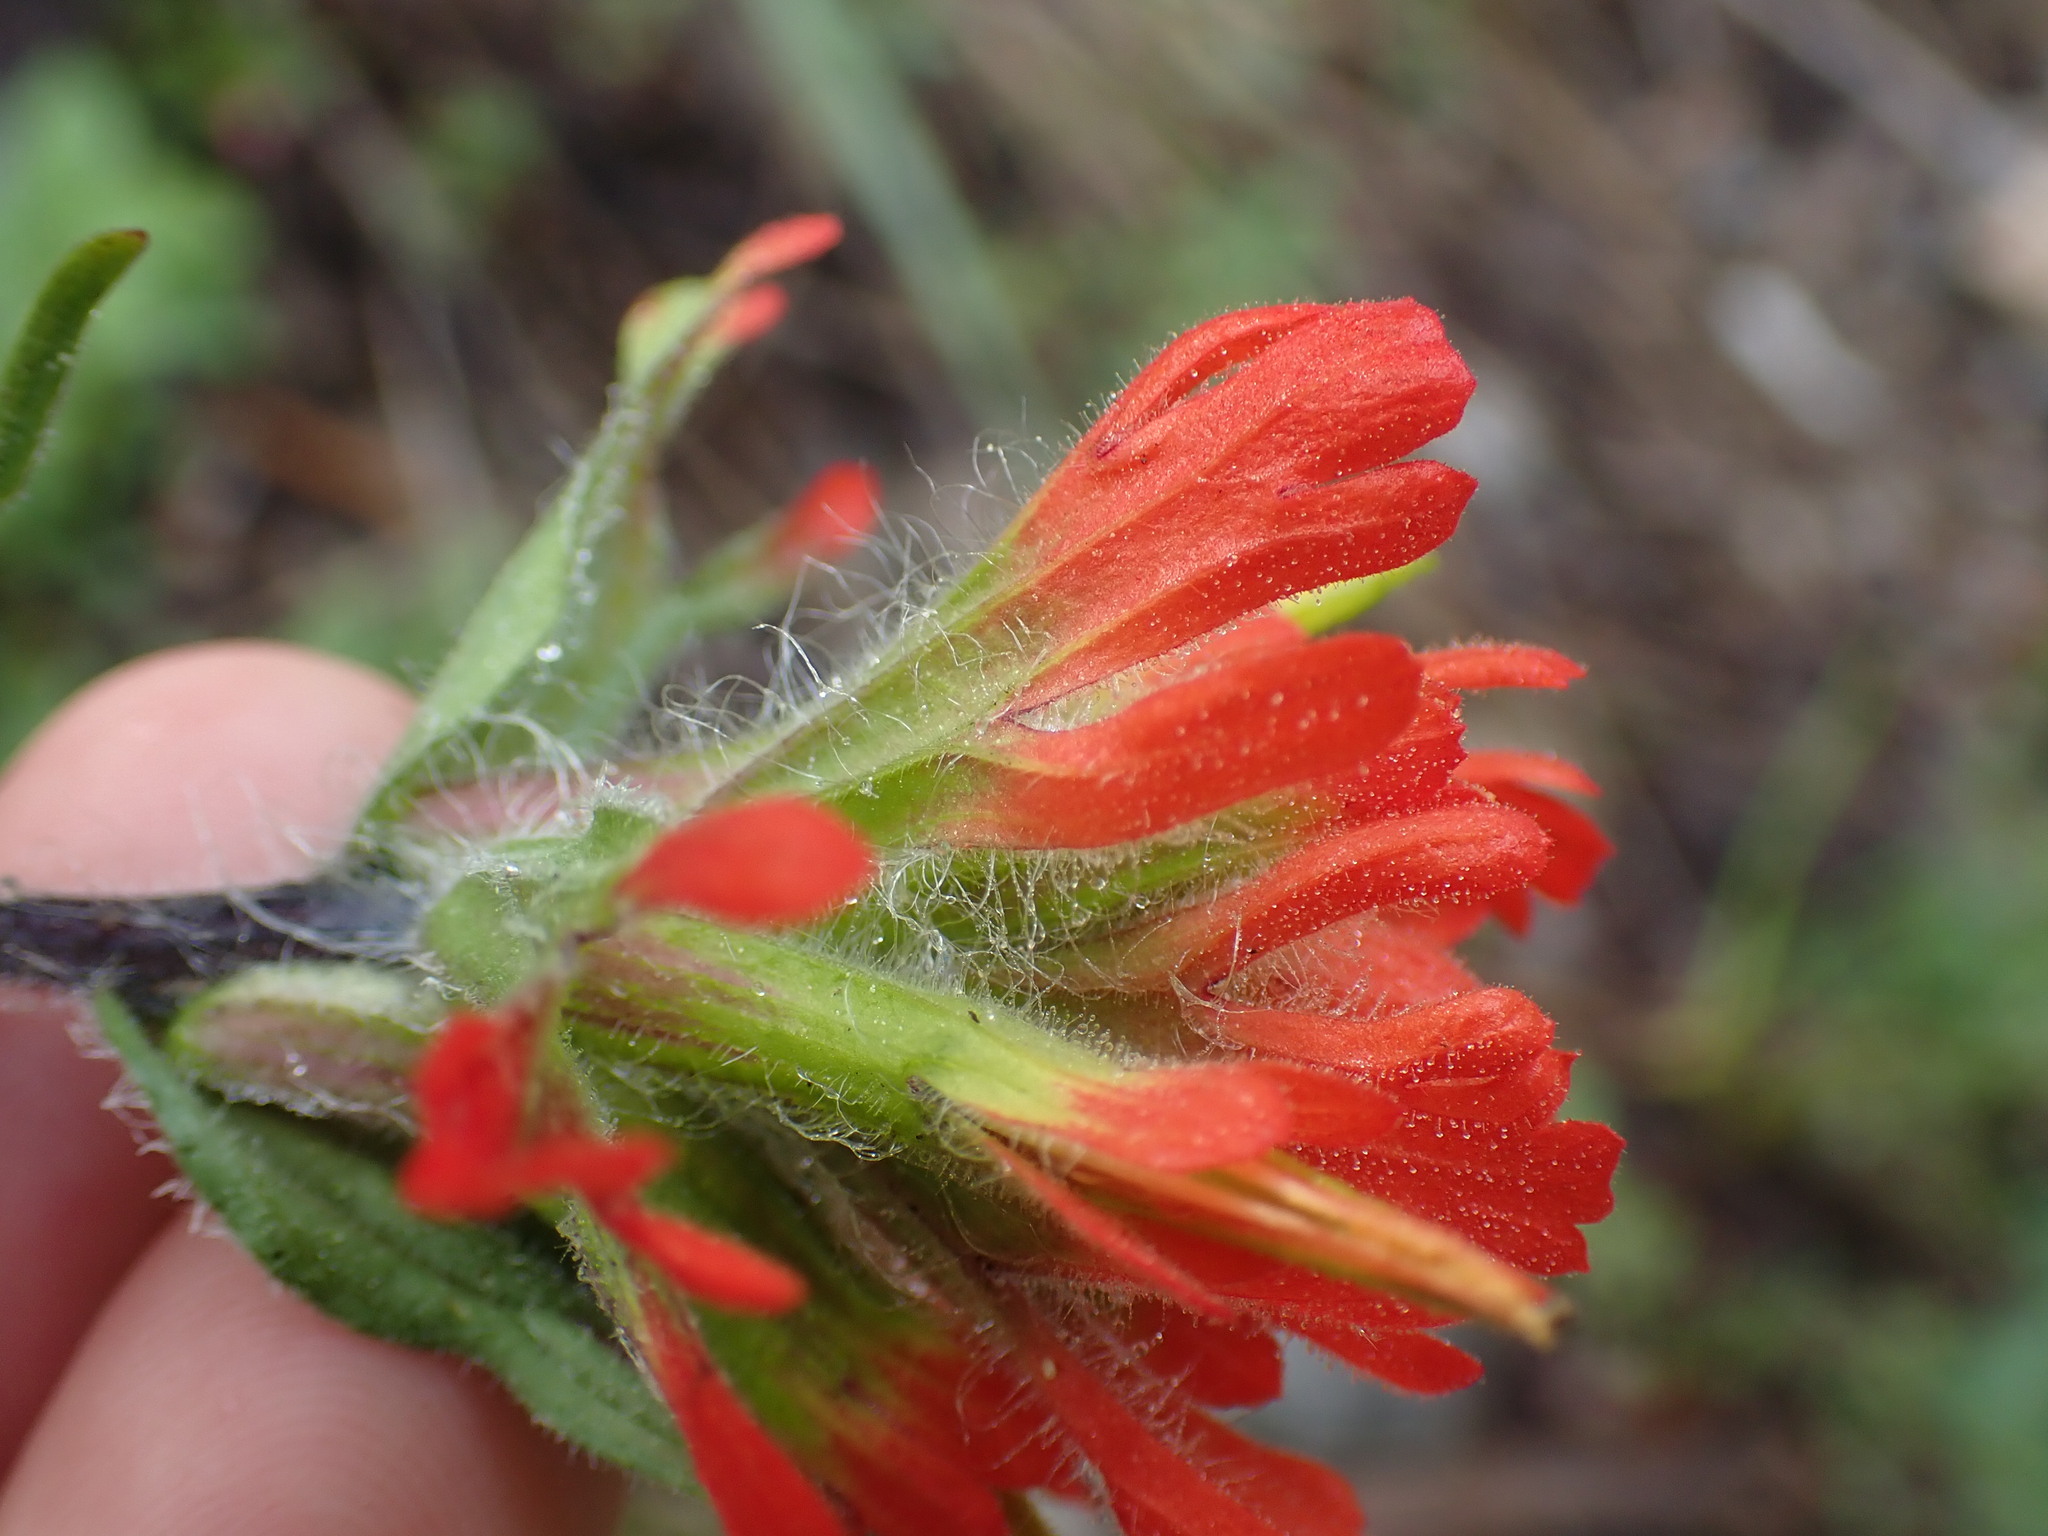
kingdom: Plantae
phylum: Tracheophyta
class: Magnoliopsida
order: Lamiales
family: Orobanchaceae
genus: Castilleja
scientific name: Castilleja hispida
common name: Bristly paintbrush
